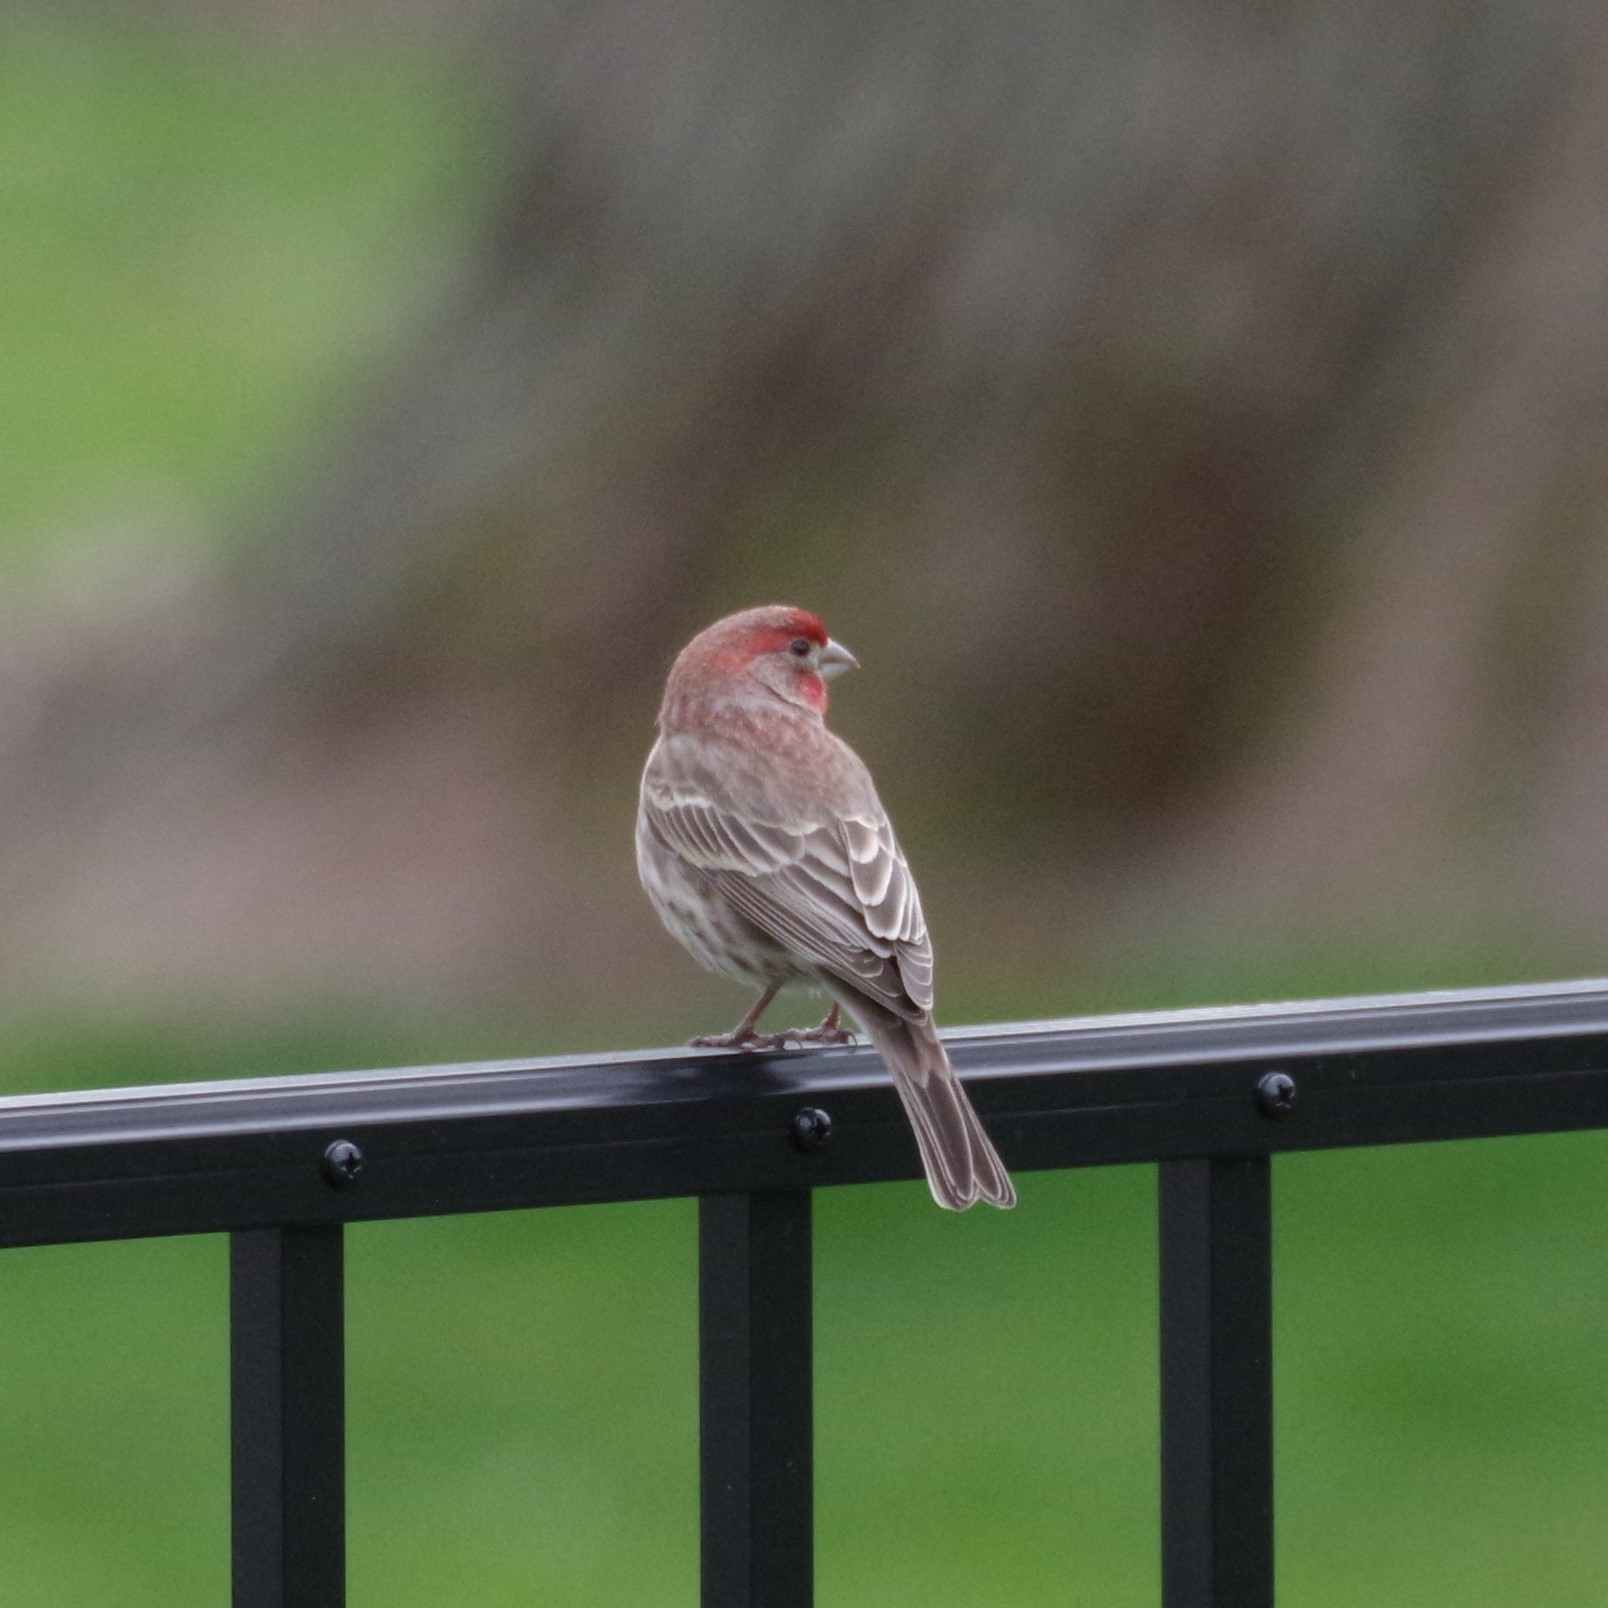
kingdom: Animalia
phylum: Chordata
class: Aves
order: Passeriformes
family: Fringillidae
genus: Haemorhous
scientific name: Haemorhous mexicanus
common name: House finch
